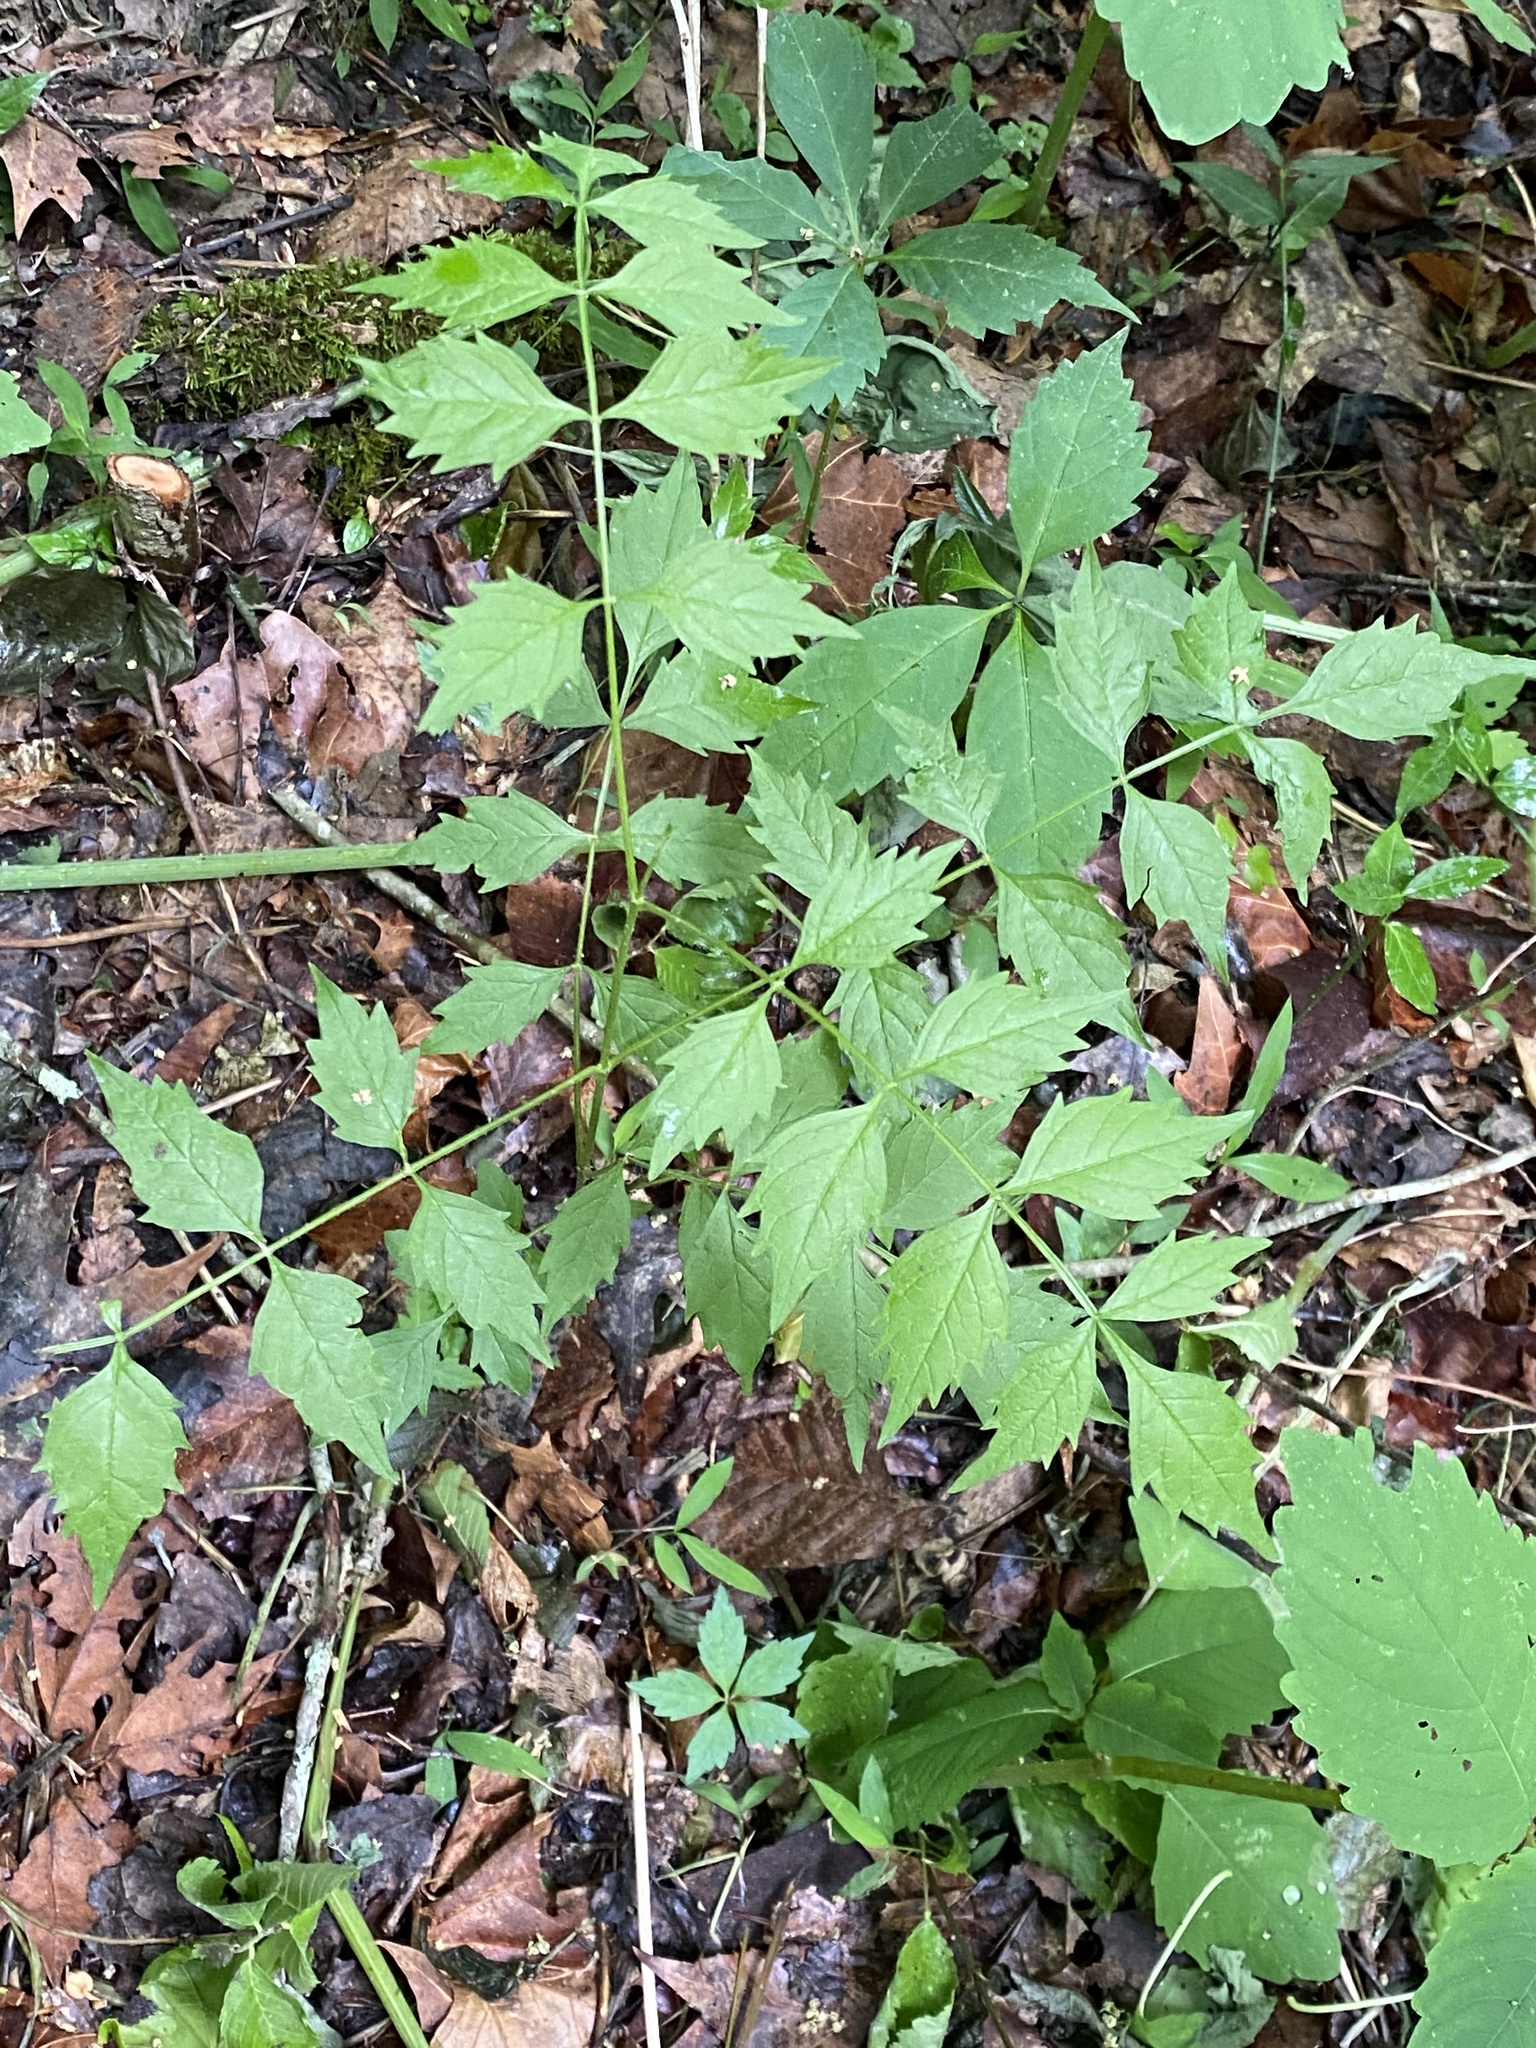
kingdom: Plantae
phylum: Tracheophyta
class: Magnoliopsida
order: Lamiales
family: Bignoniaceae
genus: Campsis
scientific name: Campsis radicans
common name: Trumpet-creeper
